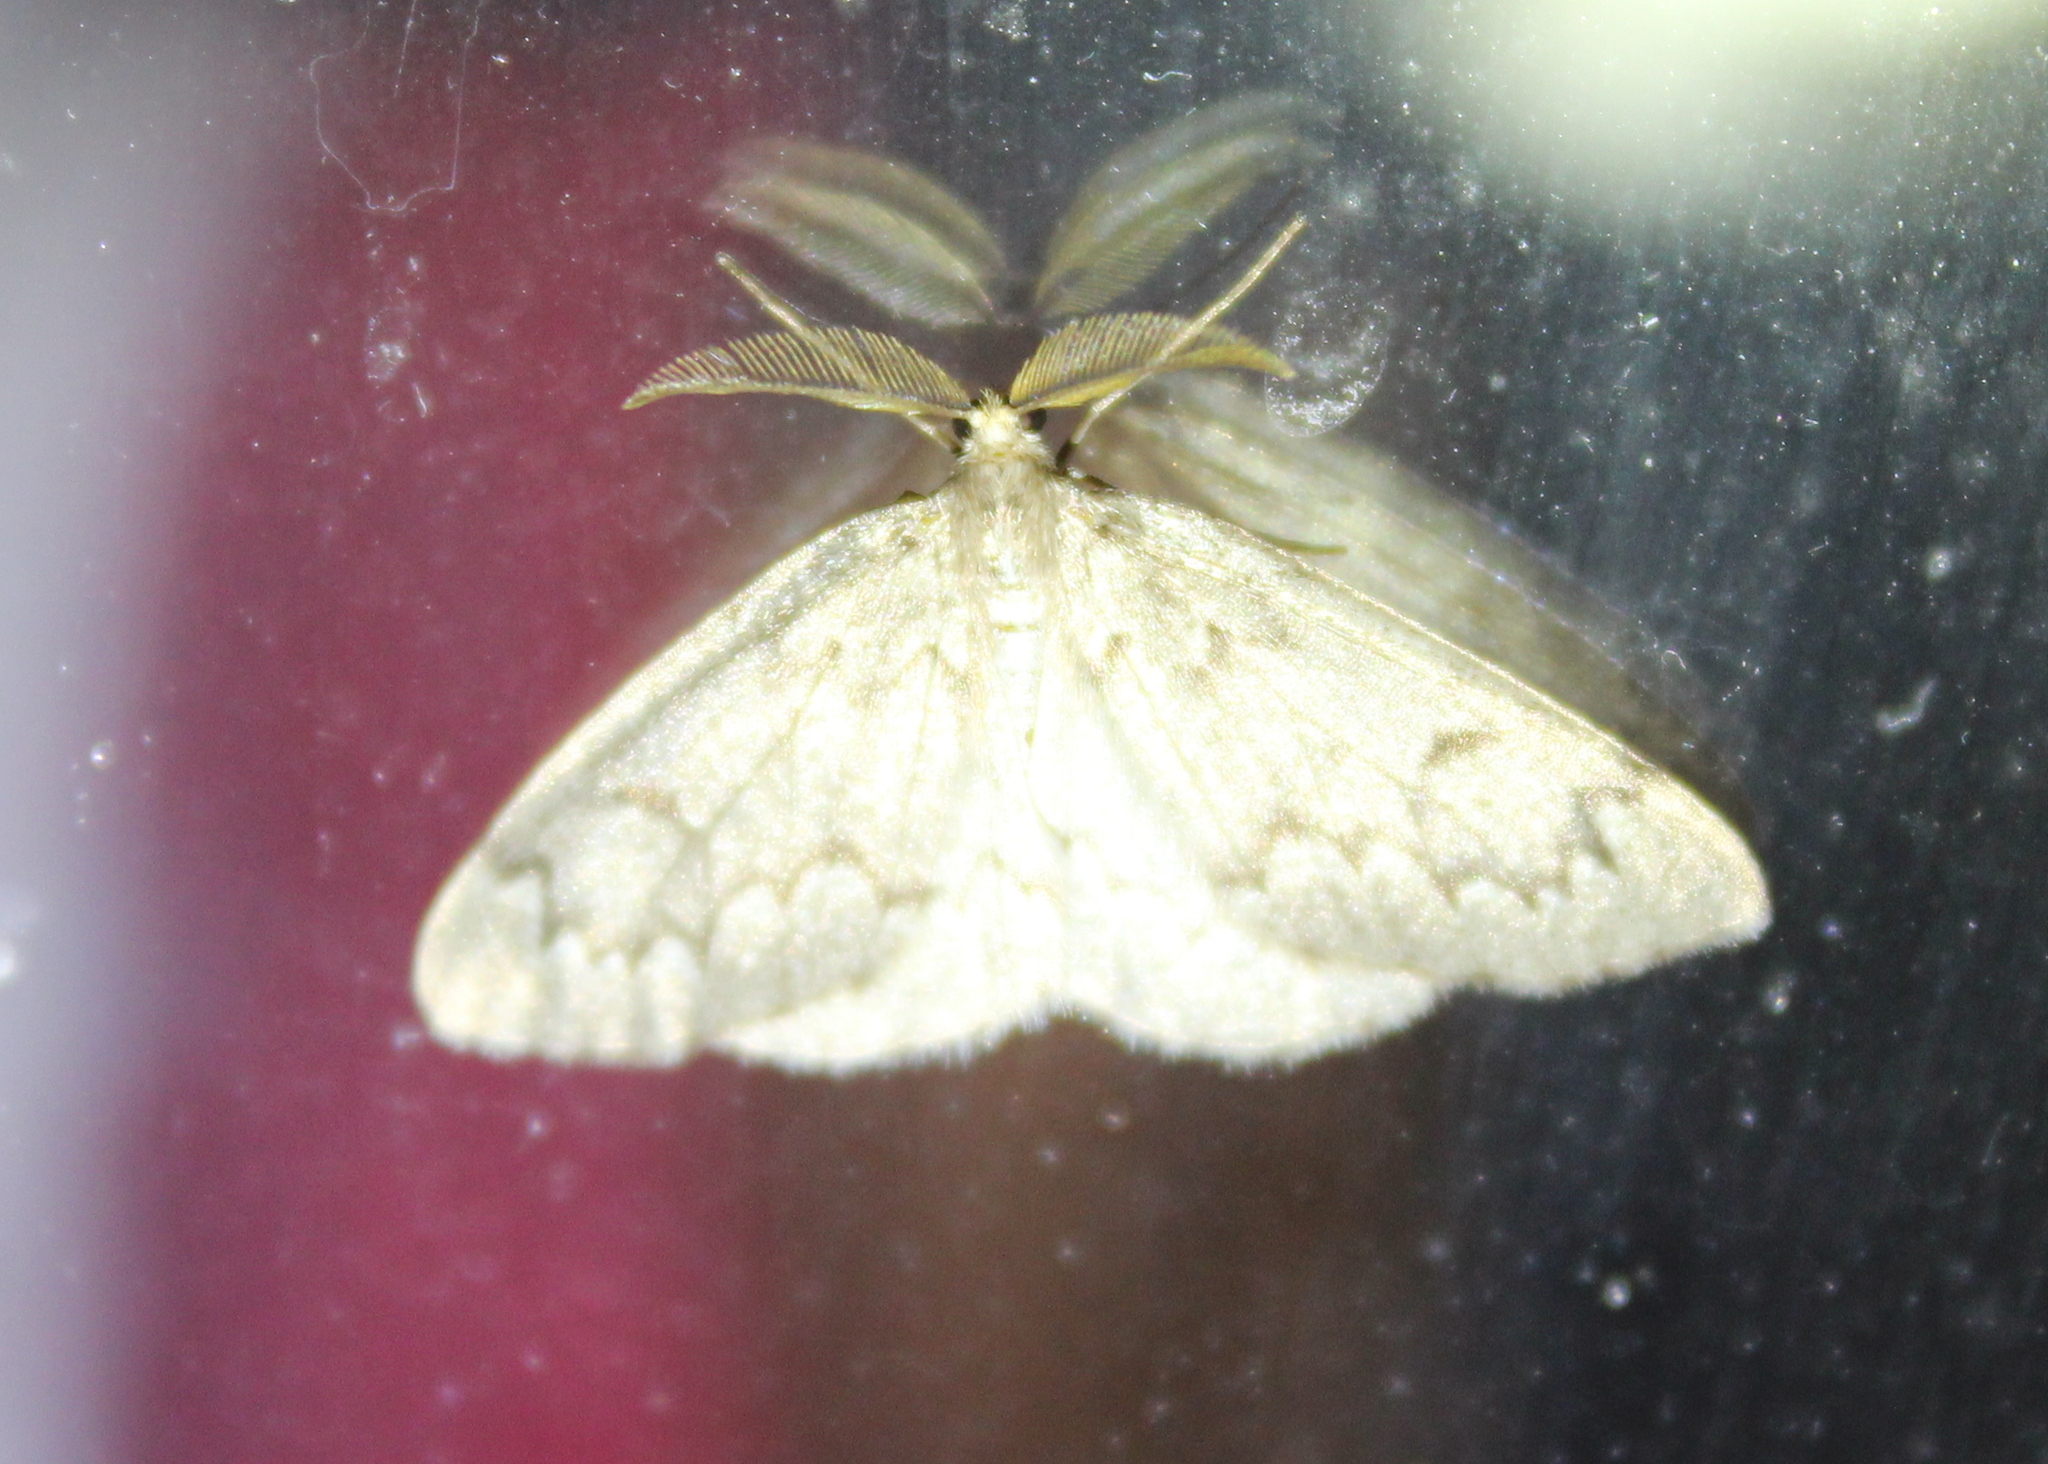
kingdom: Animalia
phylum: Arthropoda
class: Insecta
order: Lepidoptera
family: Geometridae
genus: Nepytia
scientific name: Nepytia canosaria
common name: False hemlock looper
